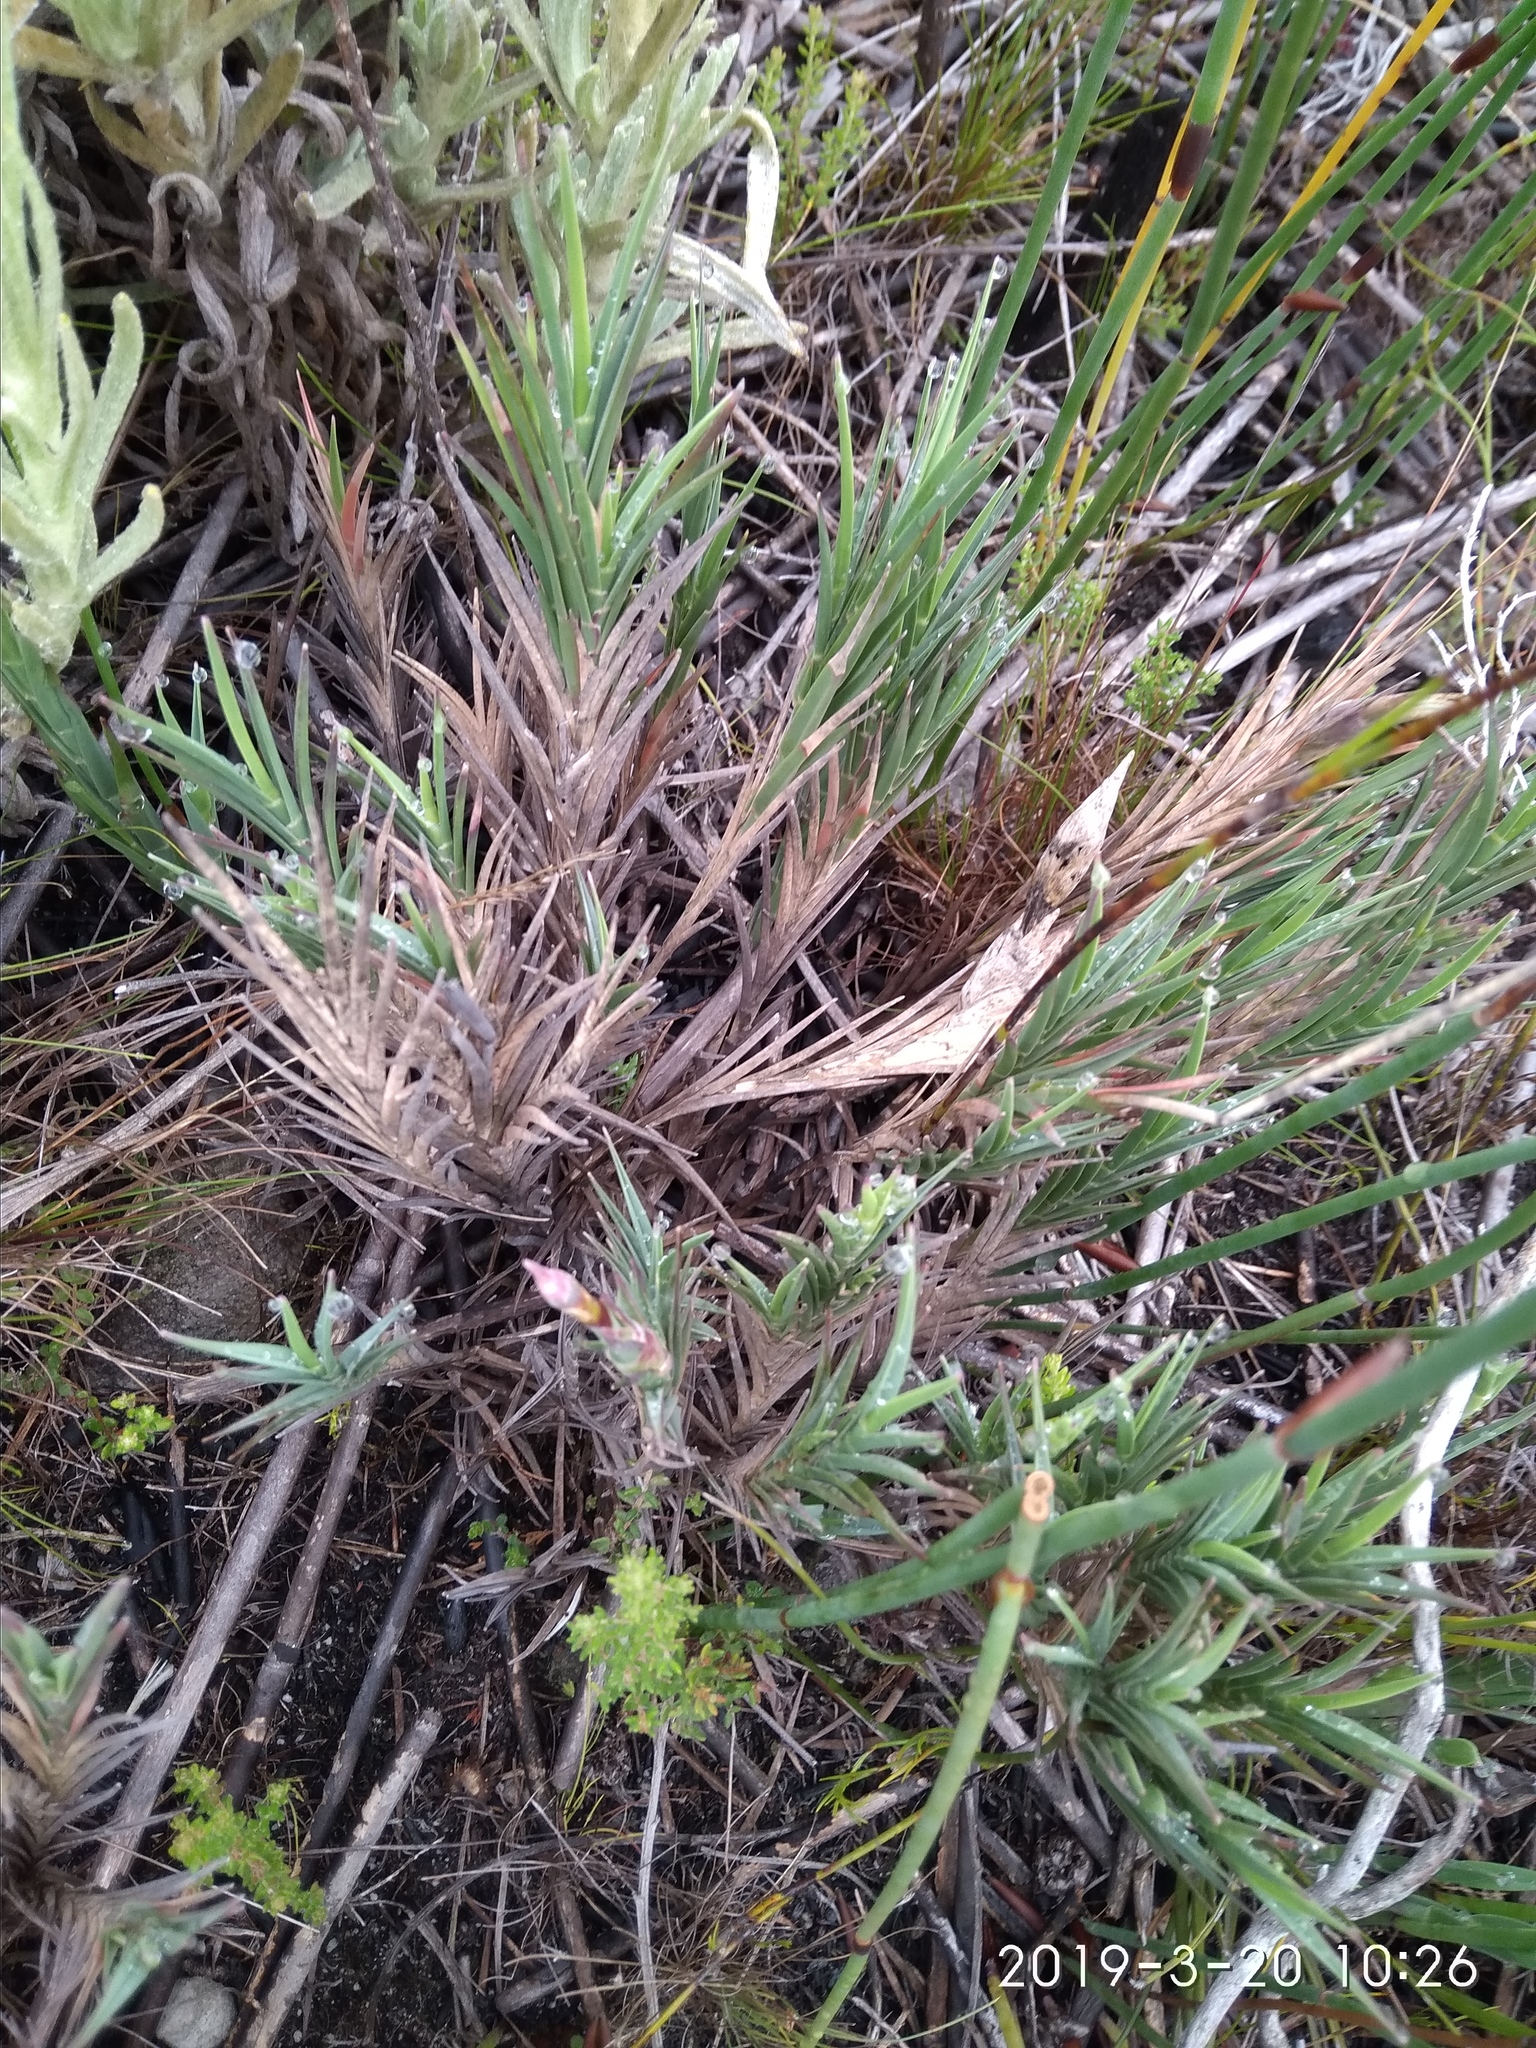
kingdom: Plantae
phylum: Tracheophyta
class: Liliopsida
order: Poales
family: Poaceae
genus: Ehrharta
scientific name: Ehrharta rupestris
